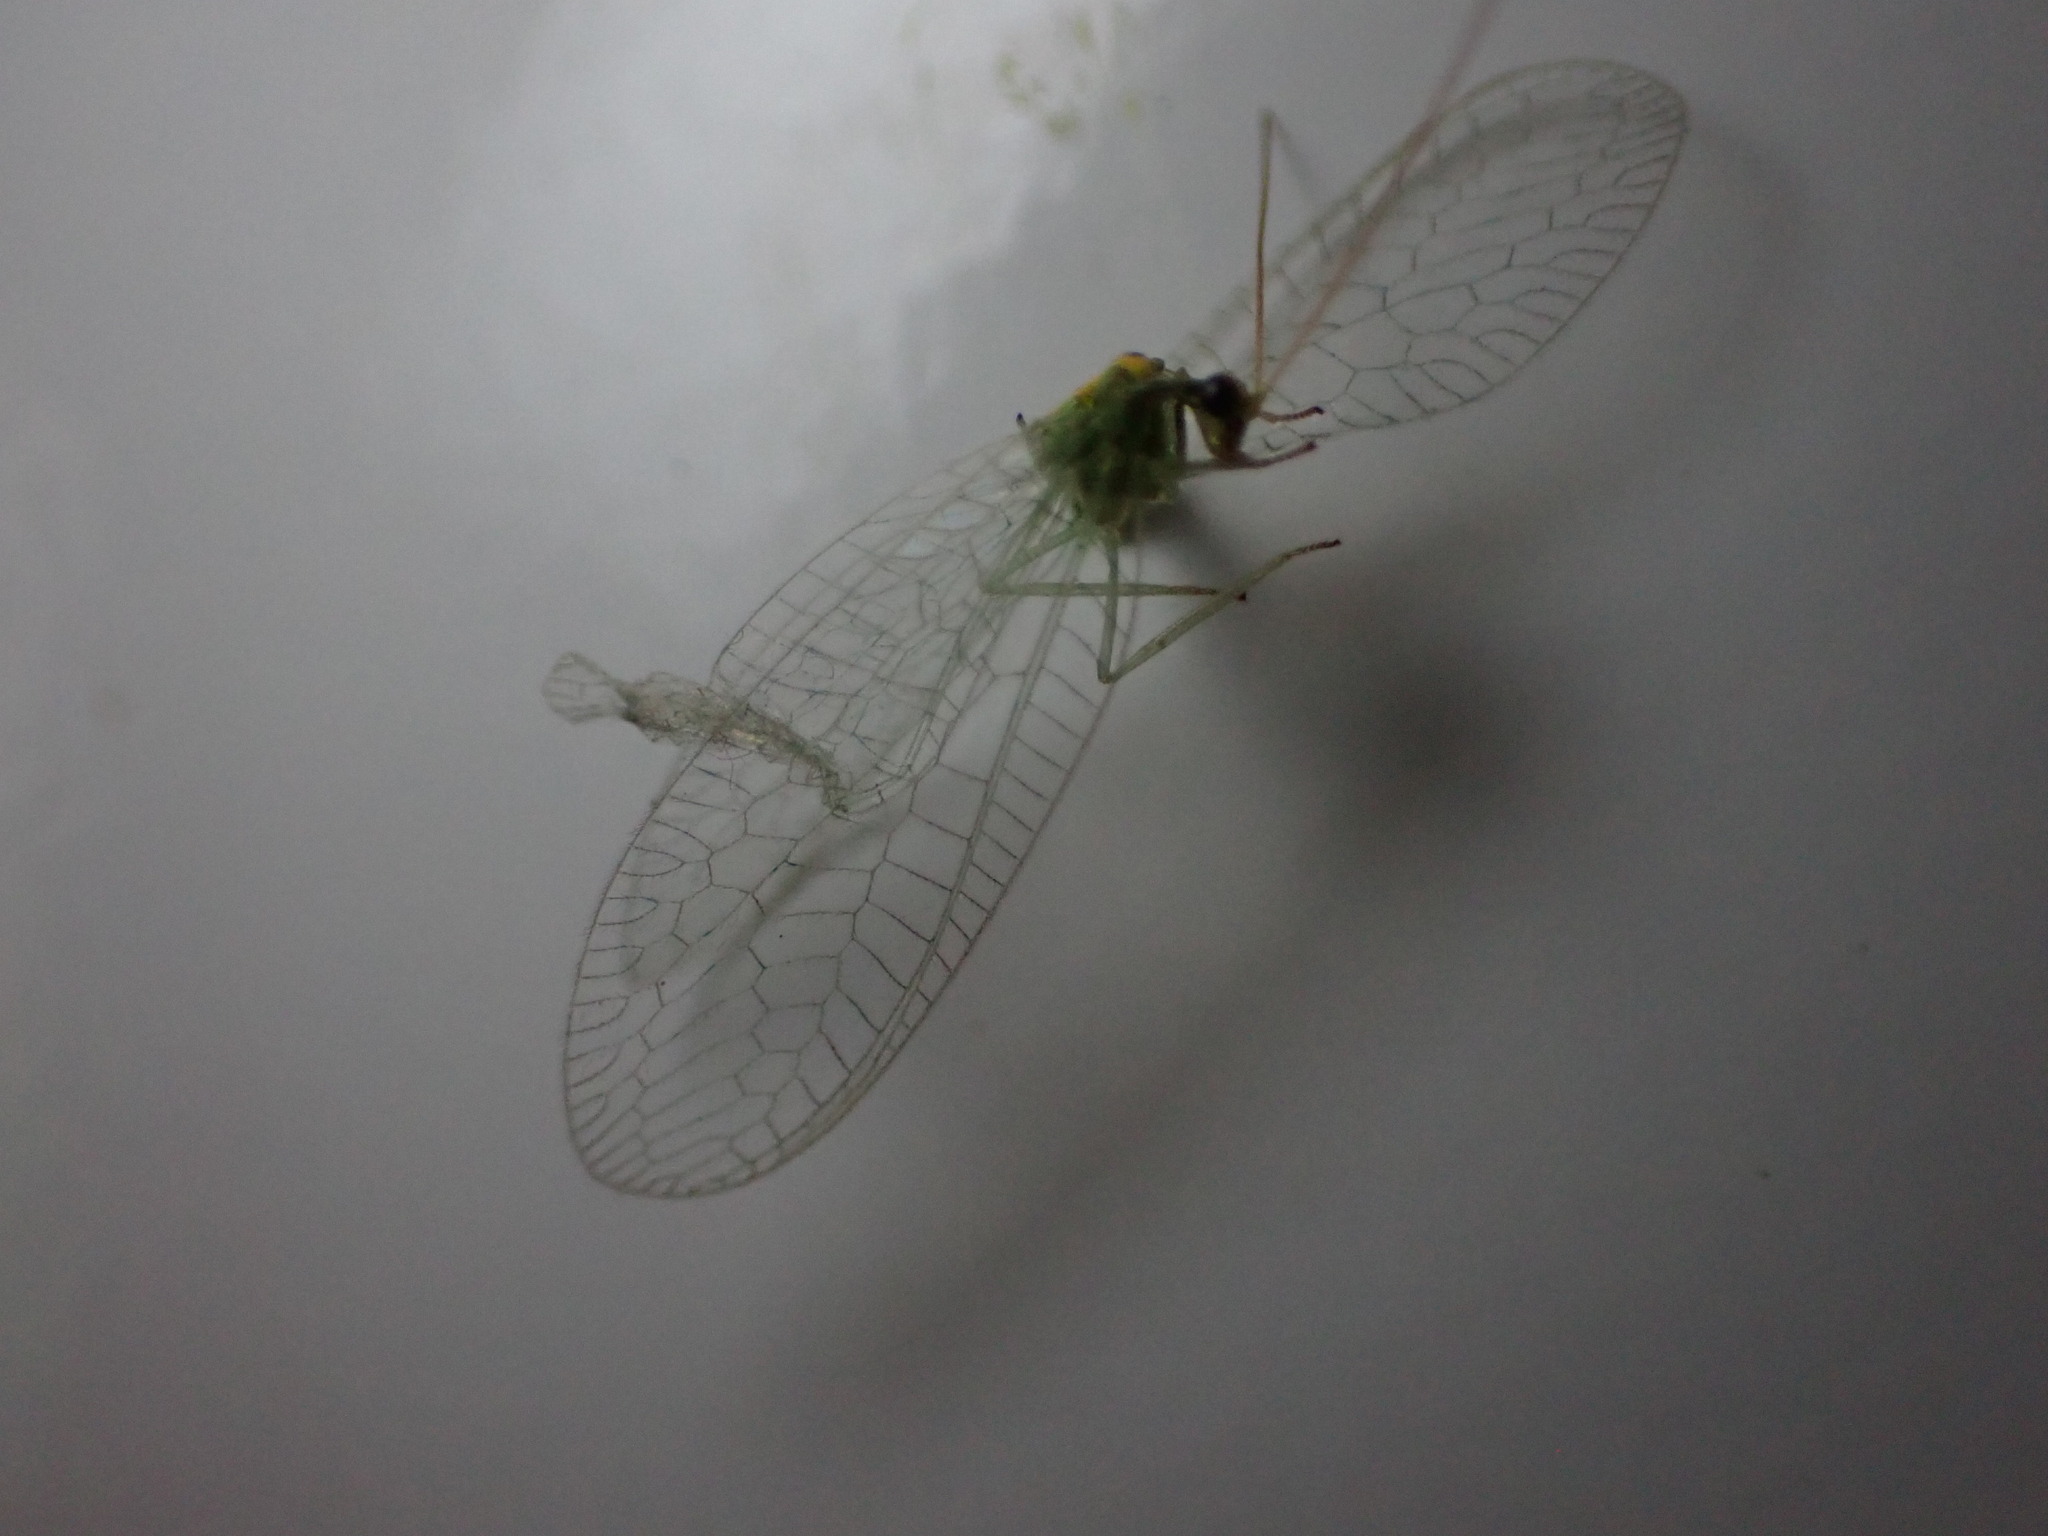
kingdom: Animalia
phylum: Arthropoda
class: Insecta
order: Neuroptera
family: Chrysopidae
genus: Mallada
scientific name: Mallada basalis
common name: Green lacewing
